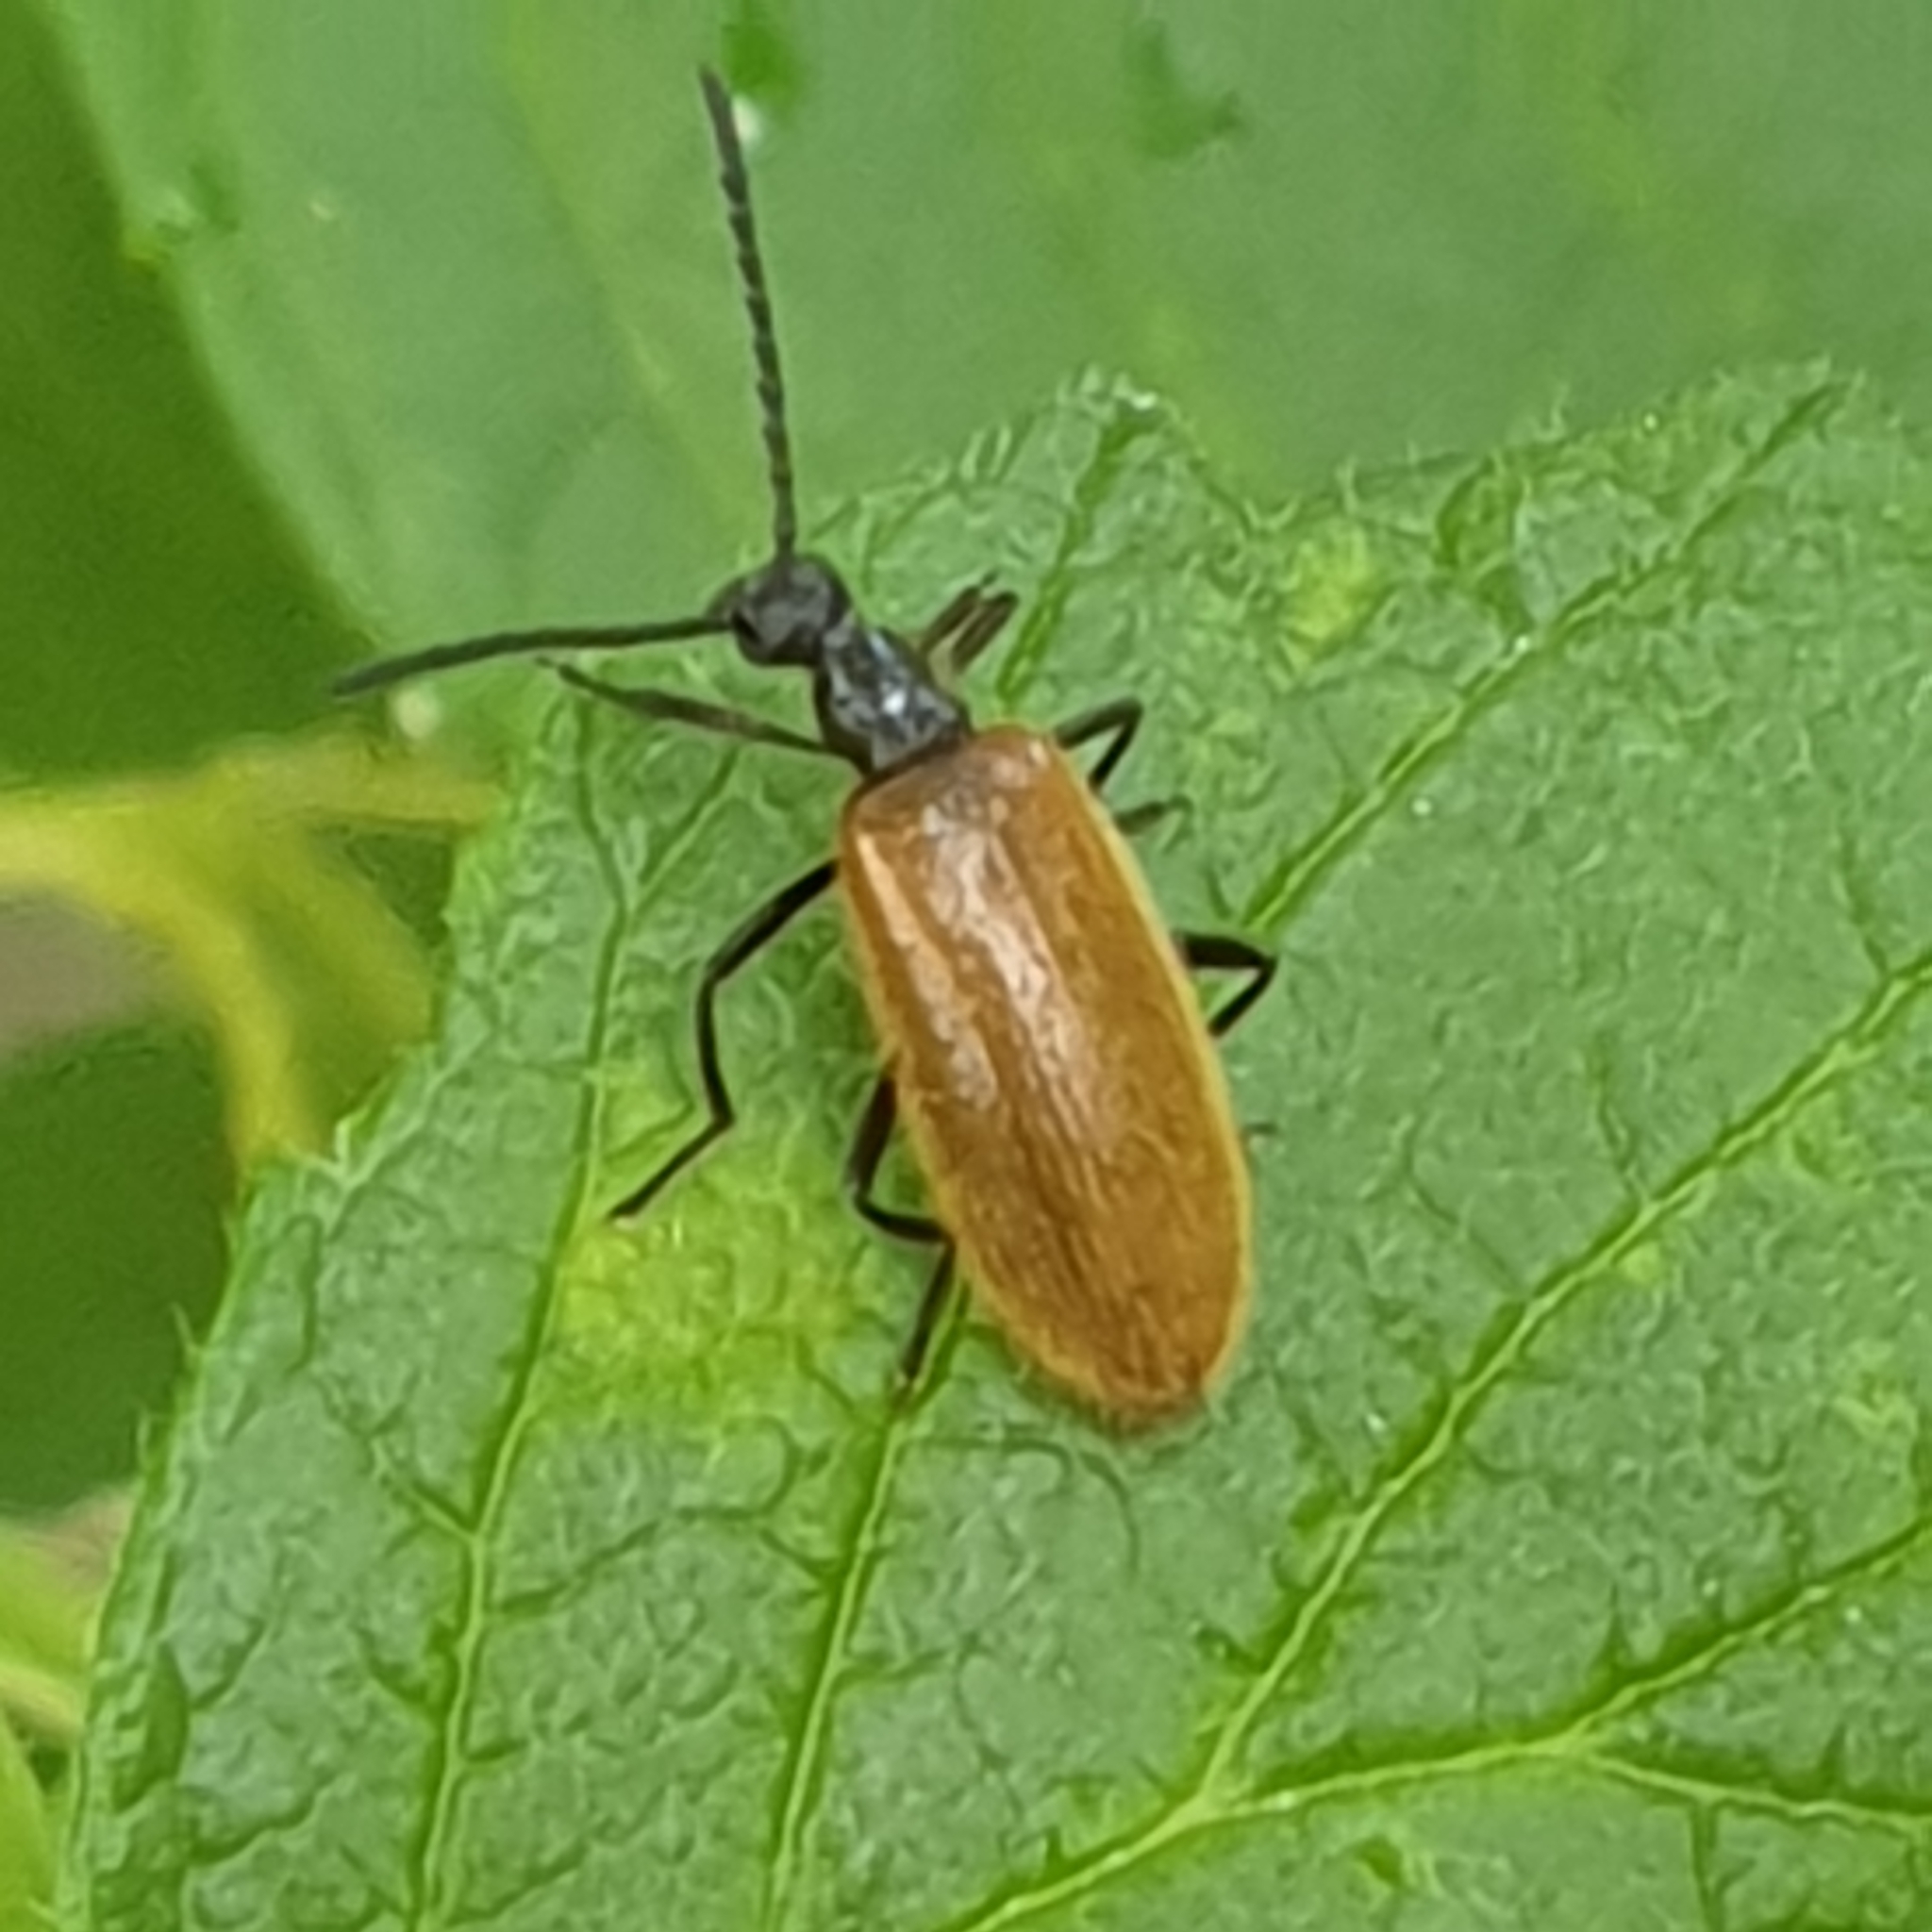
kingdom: Animalia
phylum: Arthropoda
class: Insecta
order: Coleoptera
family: Tenebrionidae
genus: Lagria
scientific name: Lagria hirta
